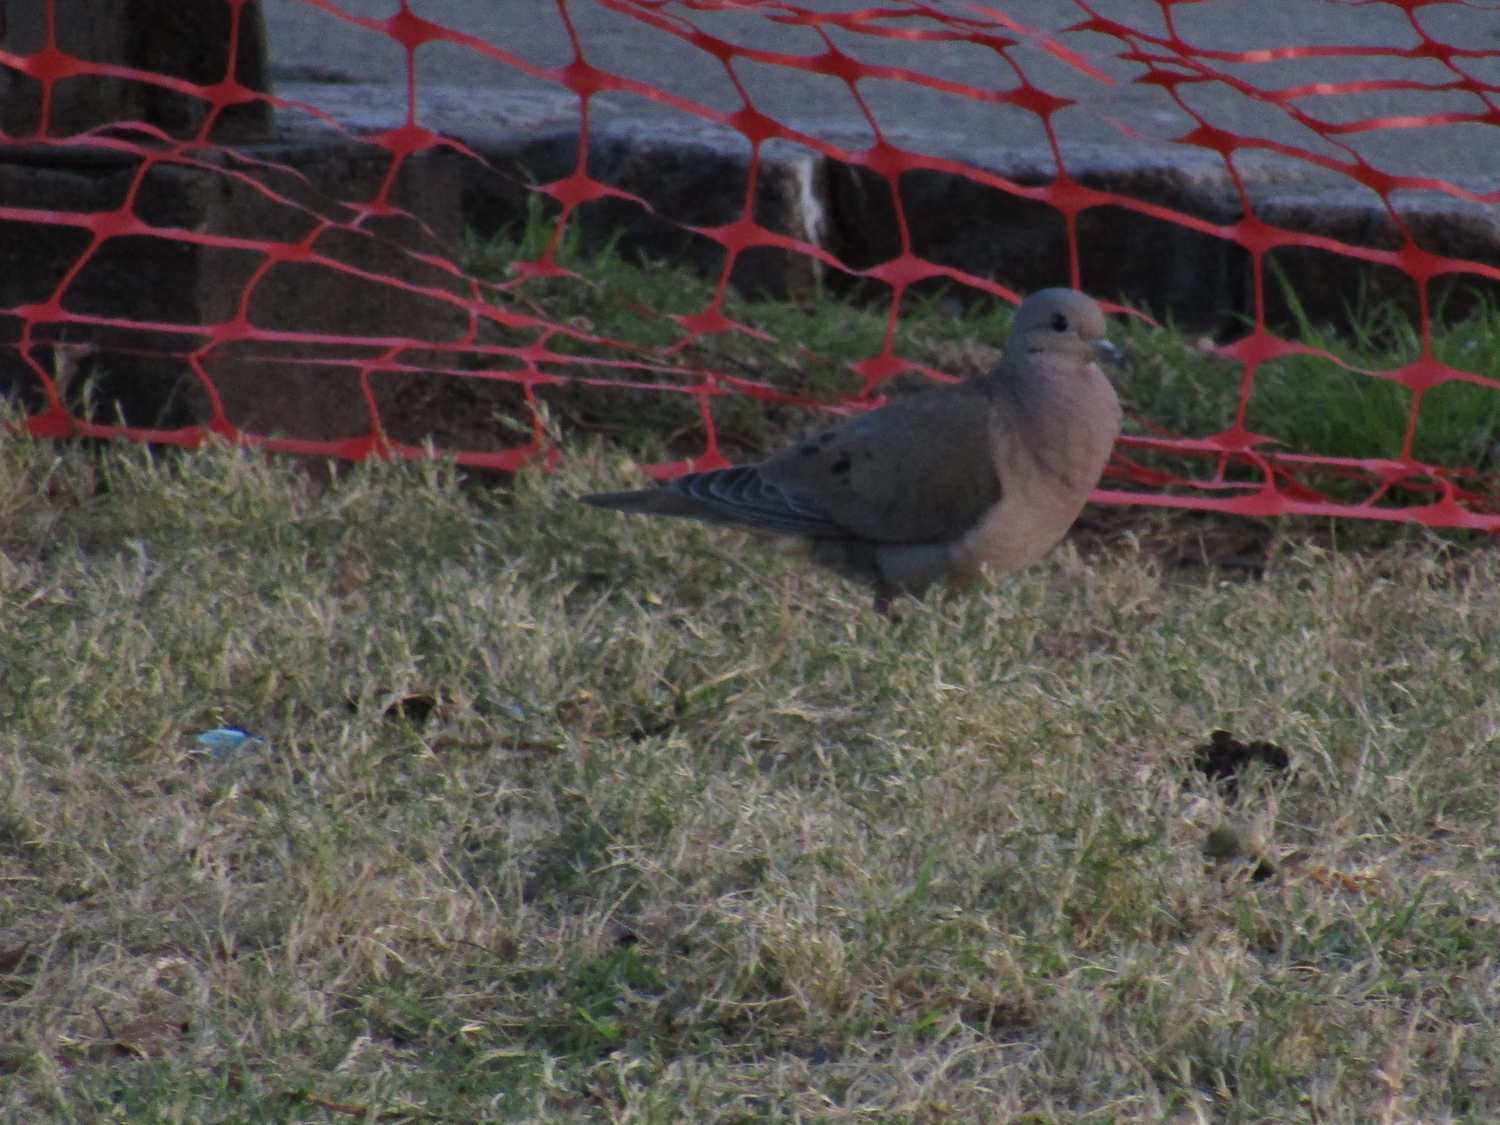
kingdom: Animalia
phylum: Chordata
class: Aves
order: Columbiformes
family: Columbidae
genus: Zenaida
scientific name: Zenaida auriculata
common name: Eared dove
